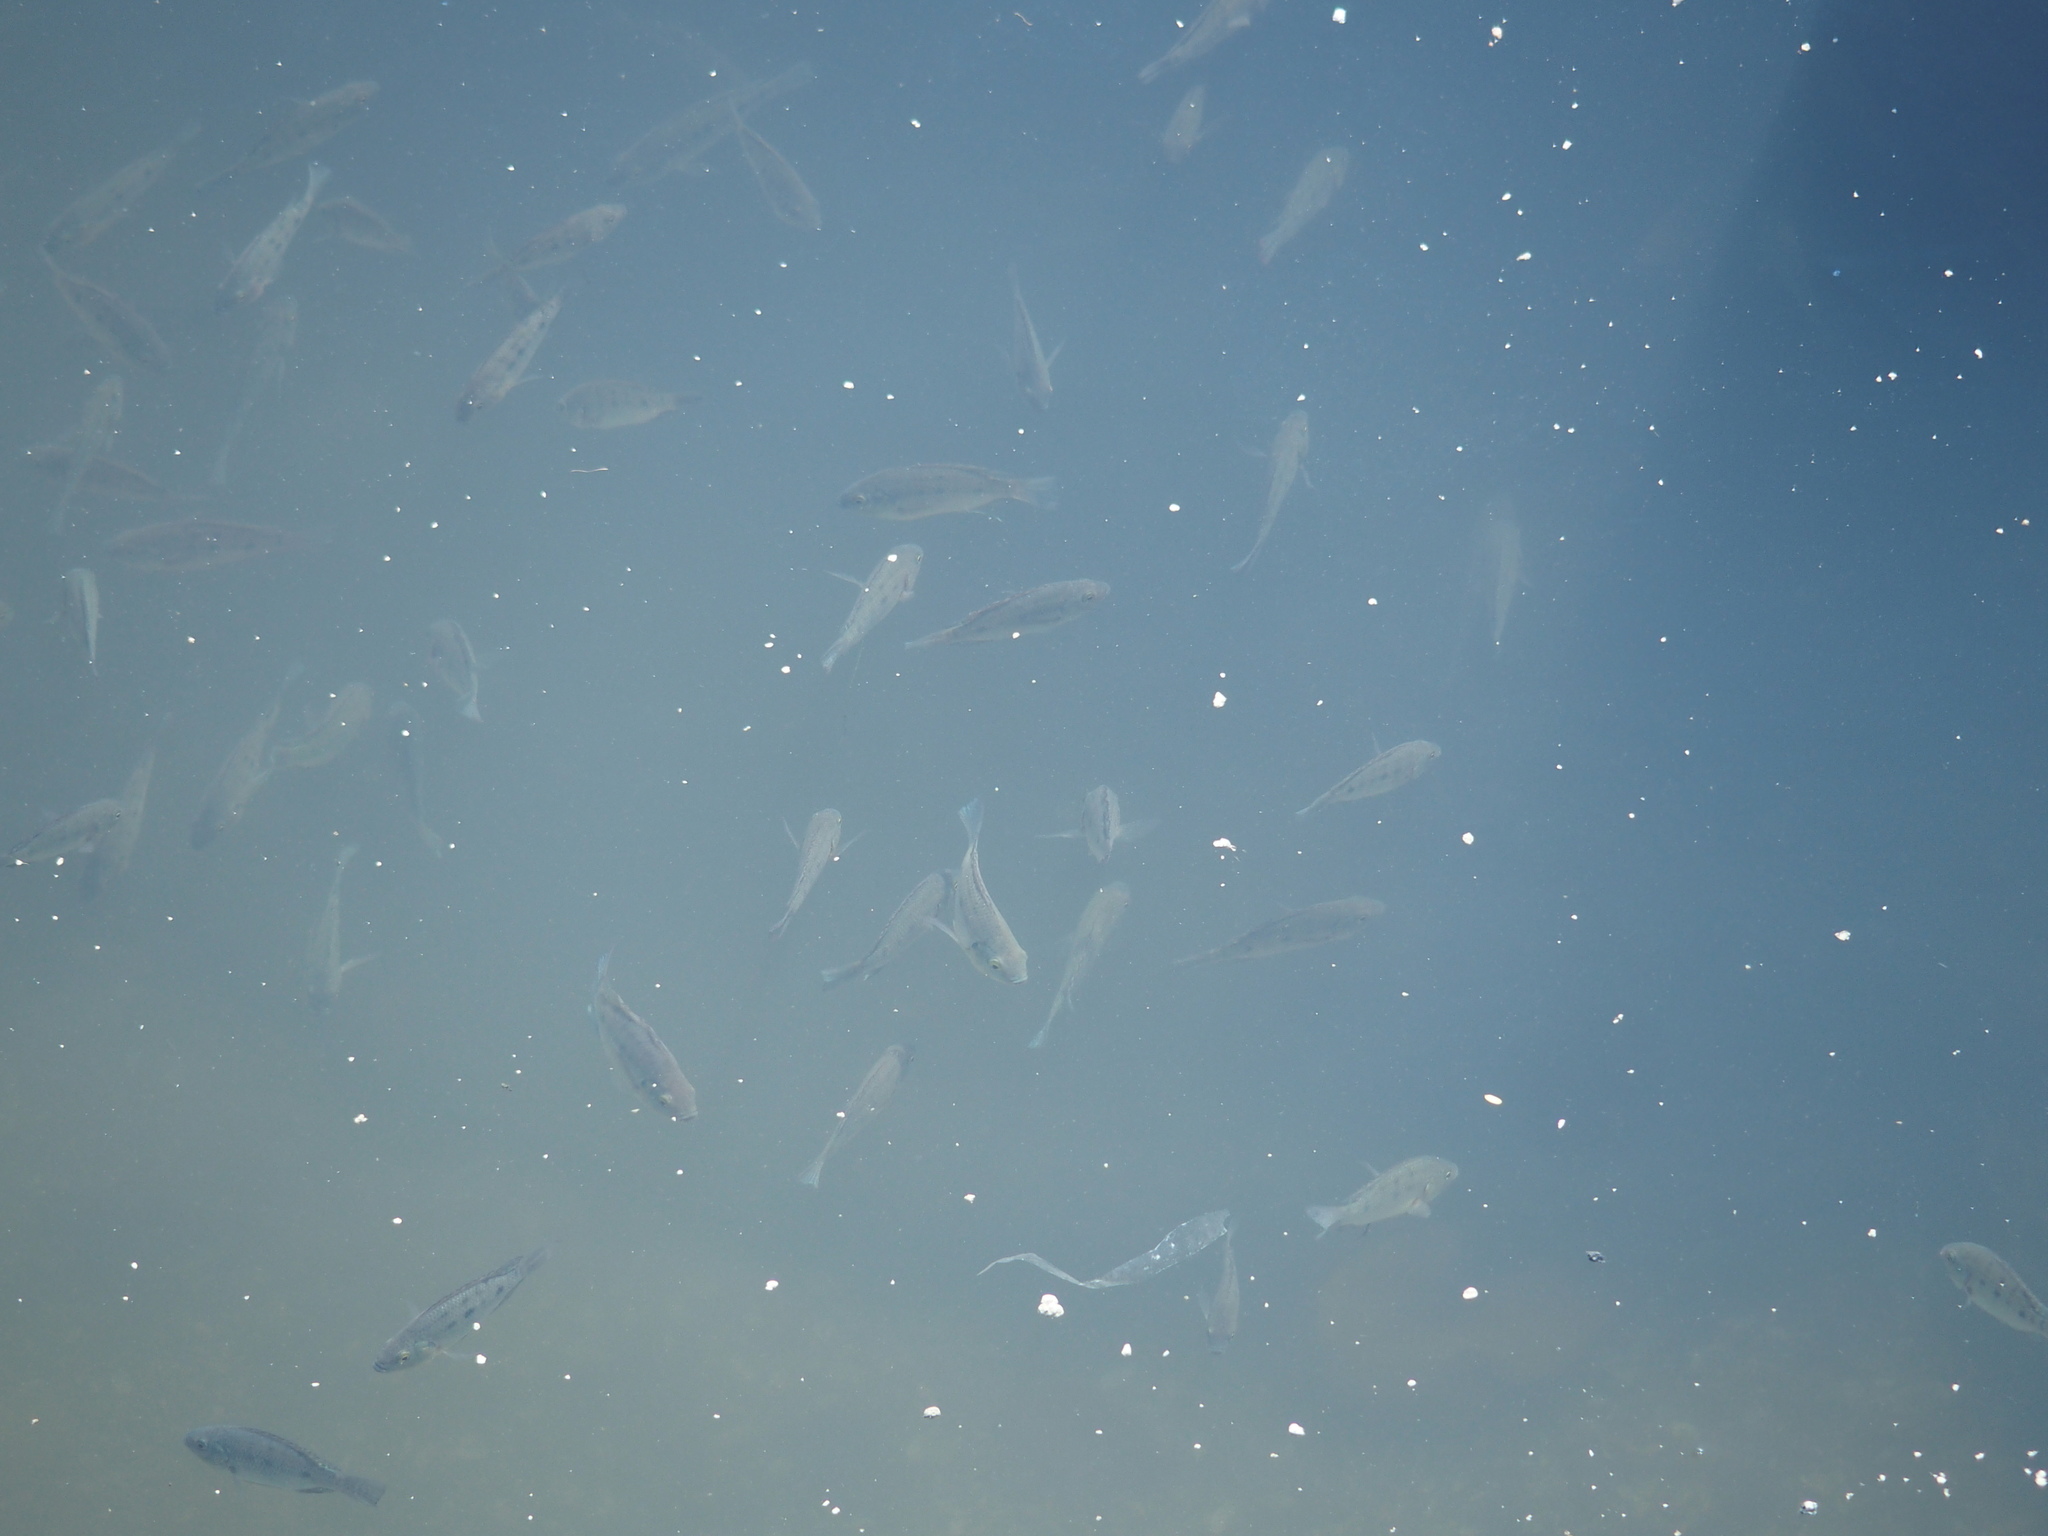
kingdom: Animalia
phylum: Chordata
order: Perciformes
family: Cichlidae
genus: Oreochromis
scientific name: Oreochromis mossambicus
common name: Mozambique tilapia
